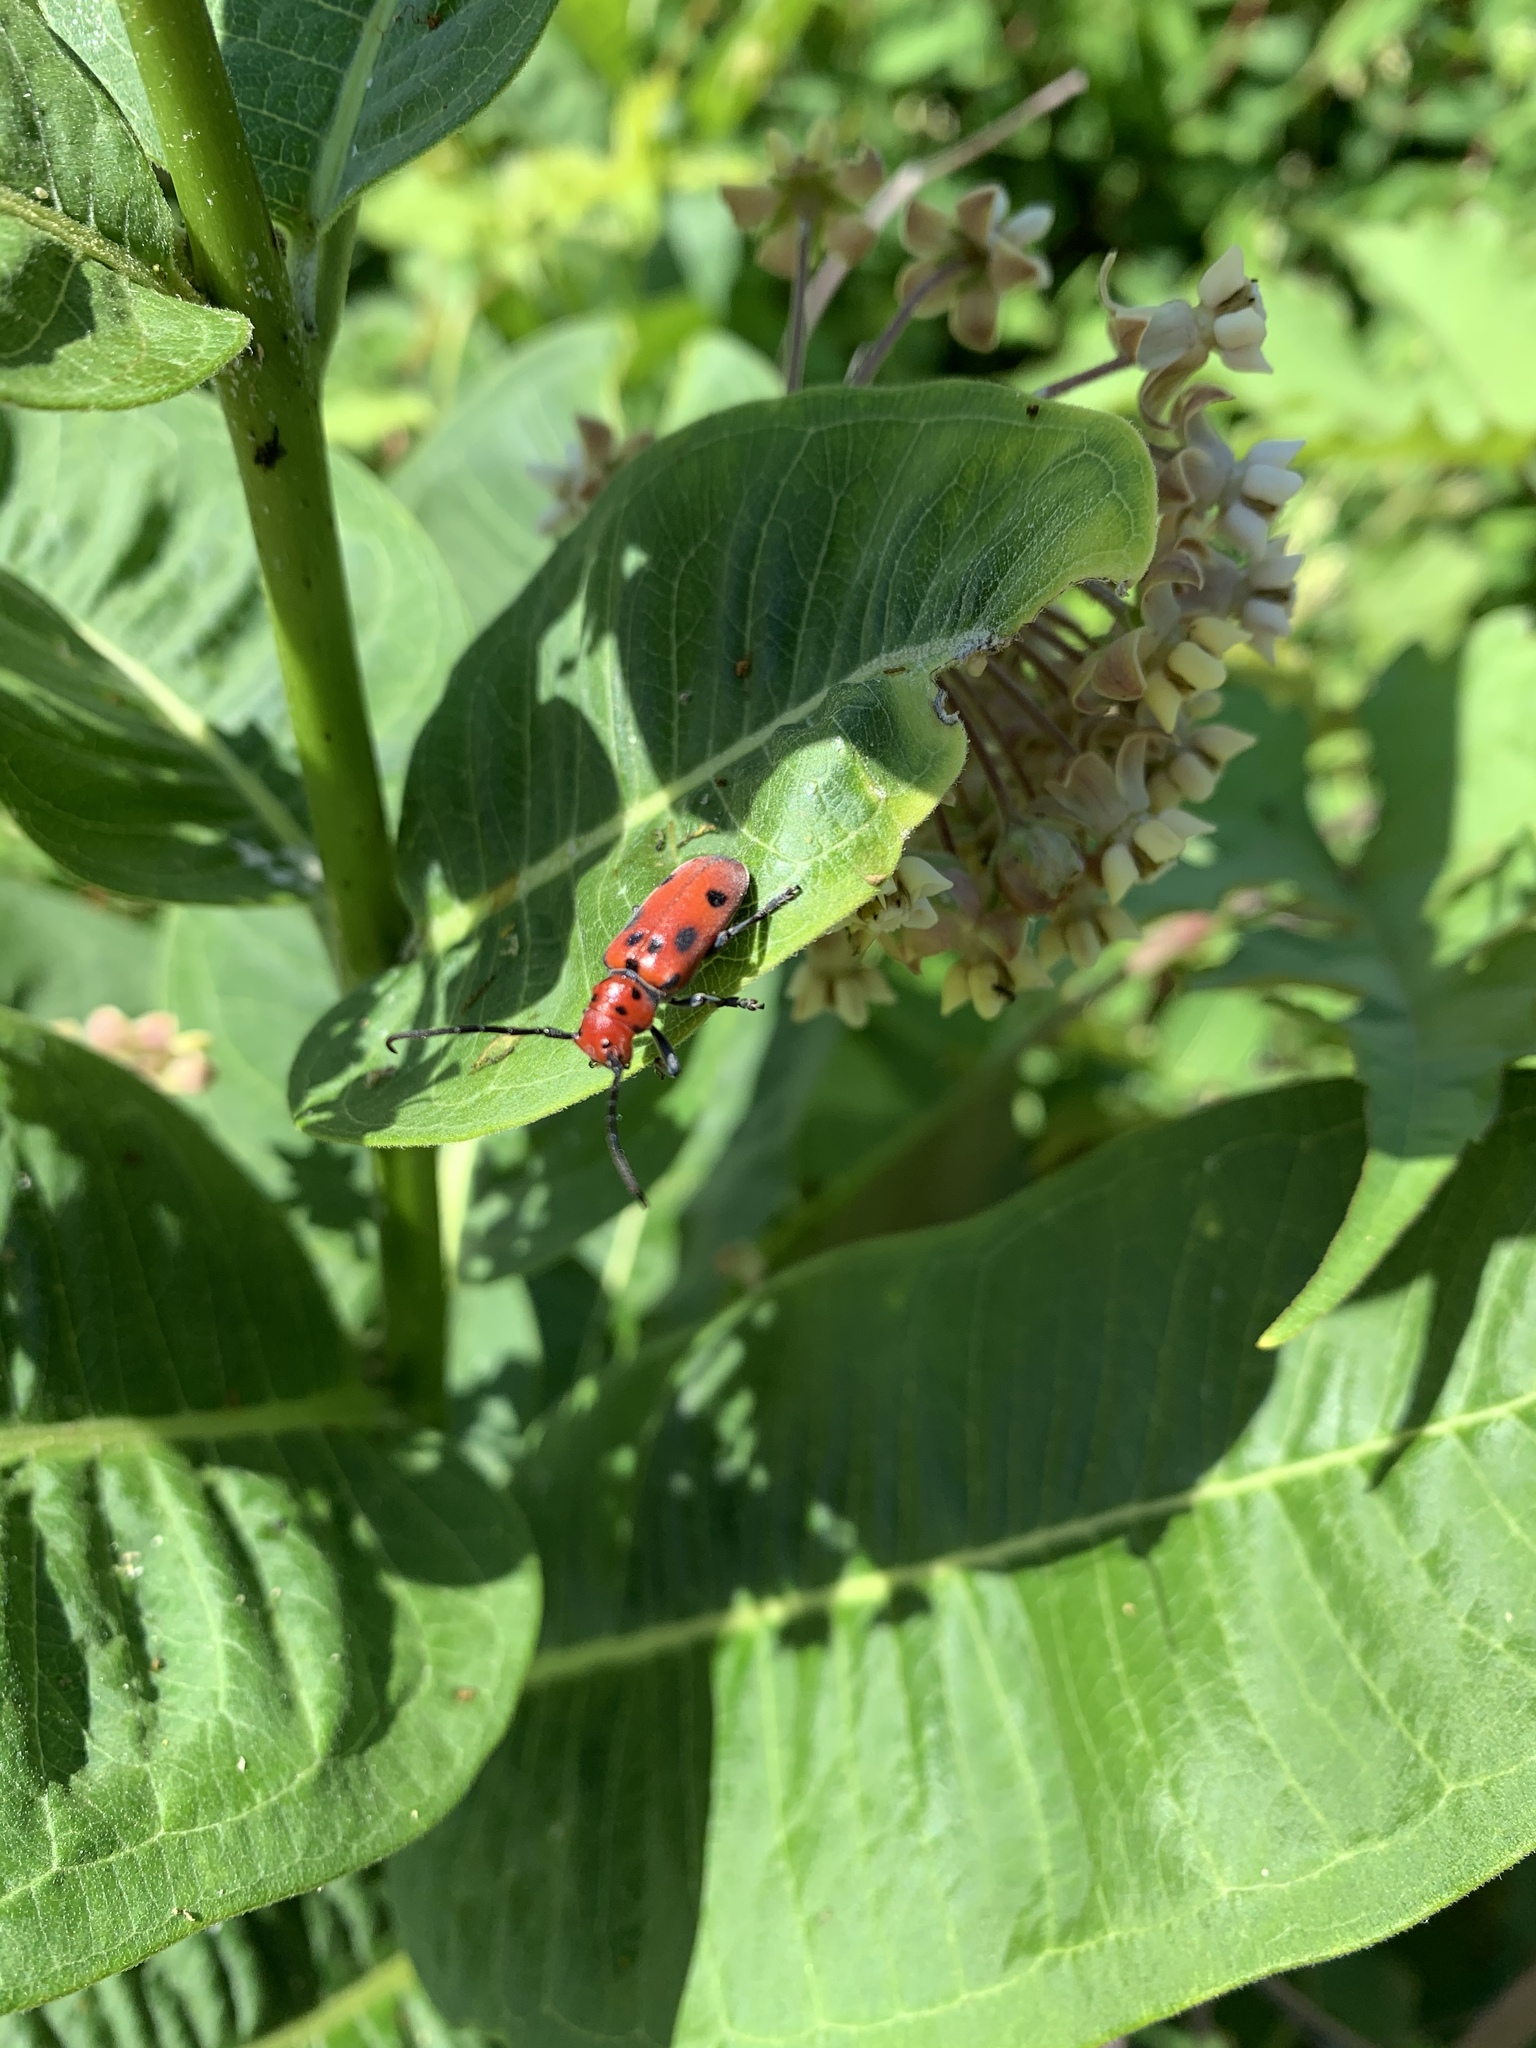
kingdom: Animalia
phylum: Arthropoda
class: Insecta
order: Coleoptera
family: Cerambycidae
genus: Tetraopes
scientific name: Tetraopes tetrophthalmus
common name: Red milkweed beetle
